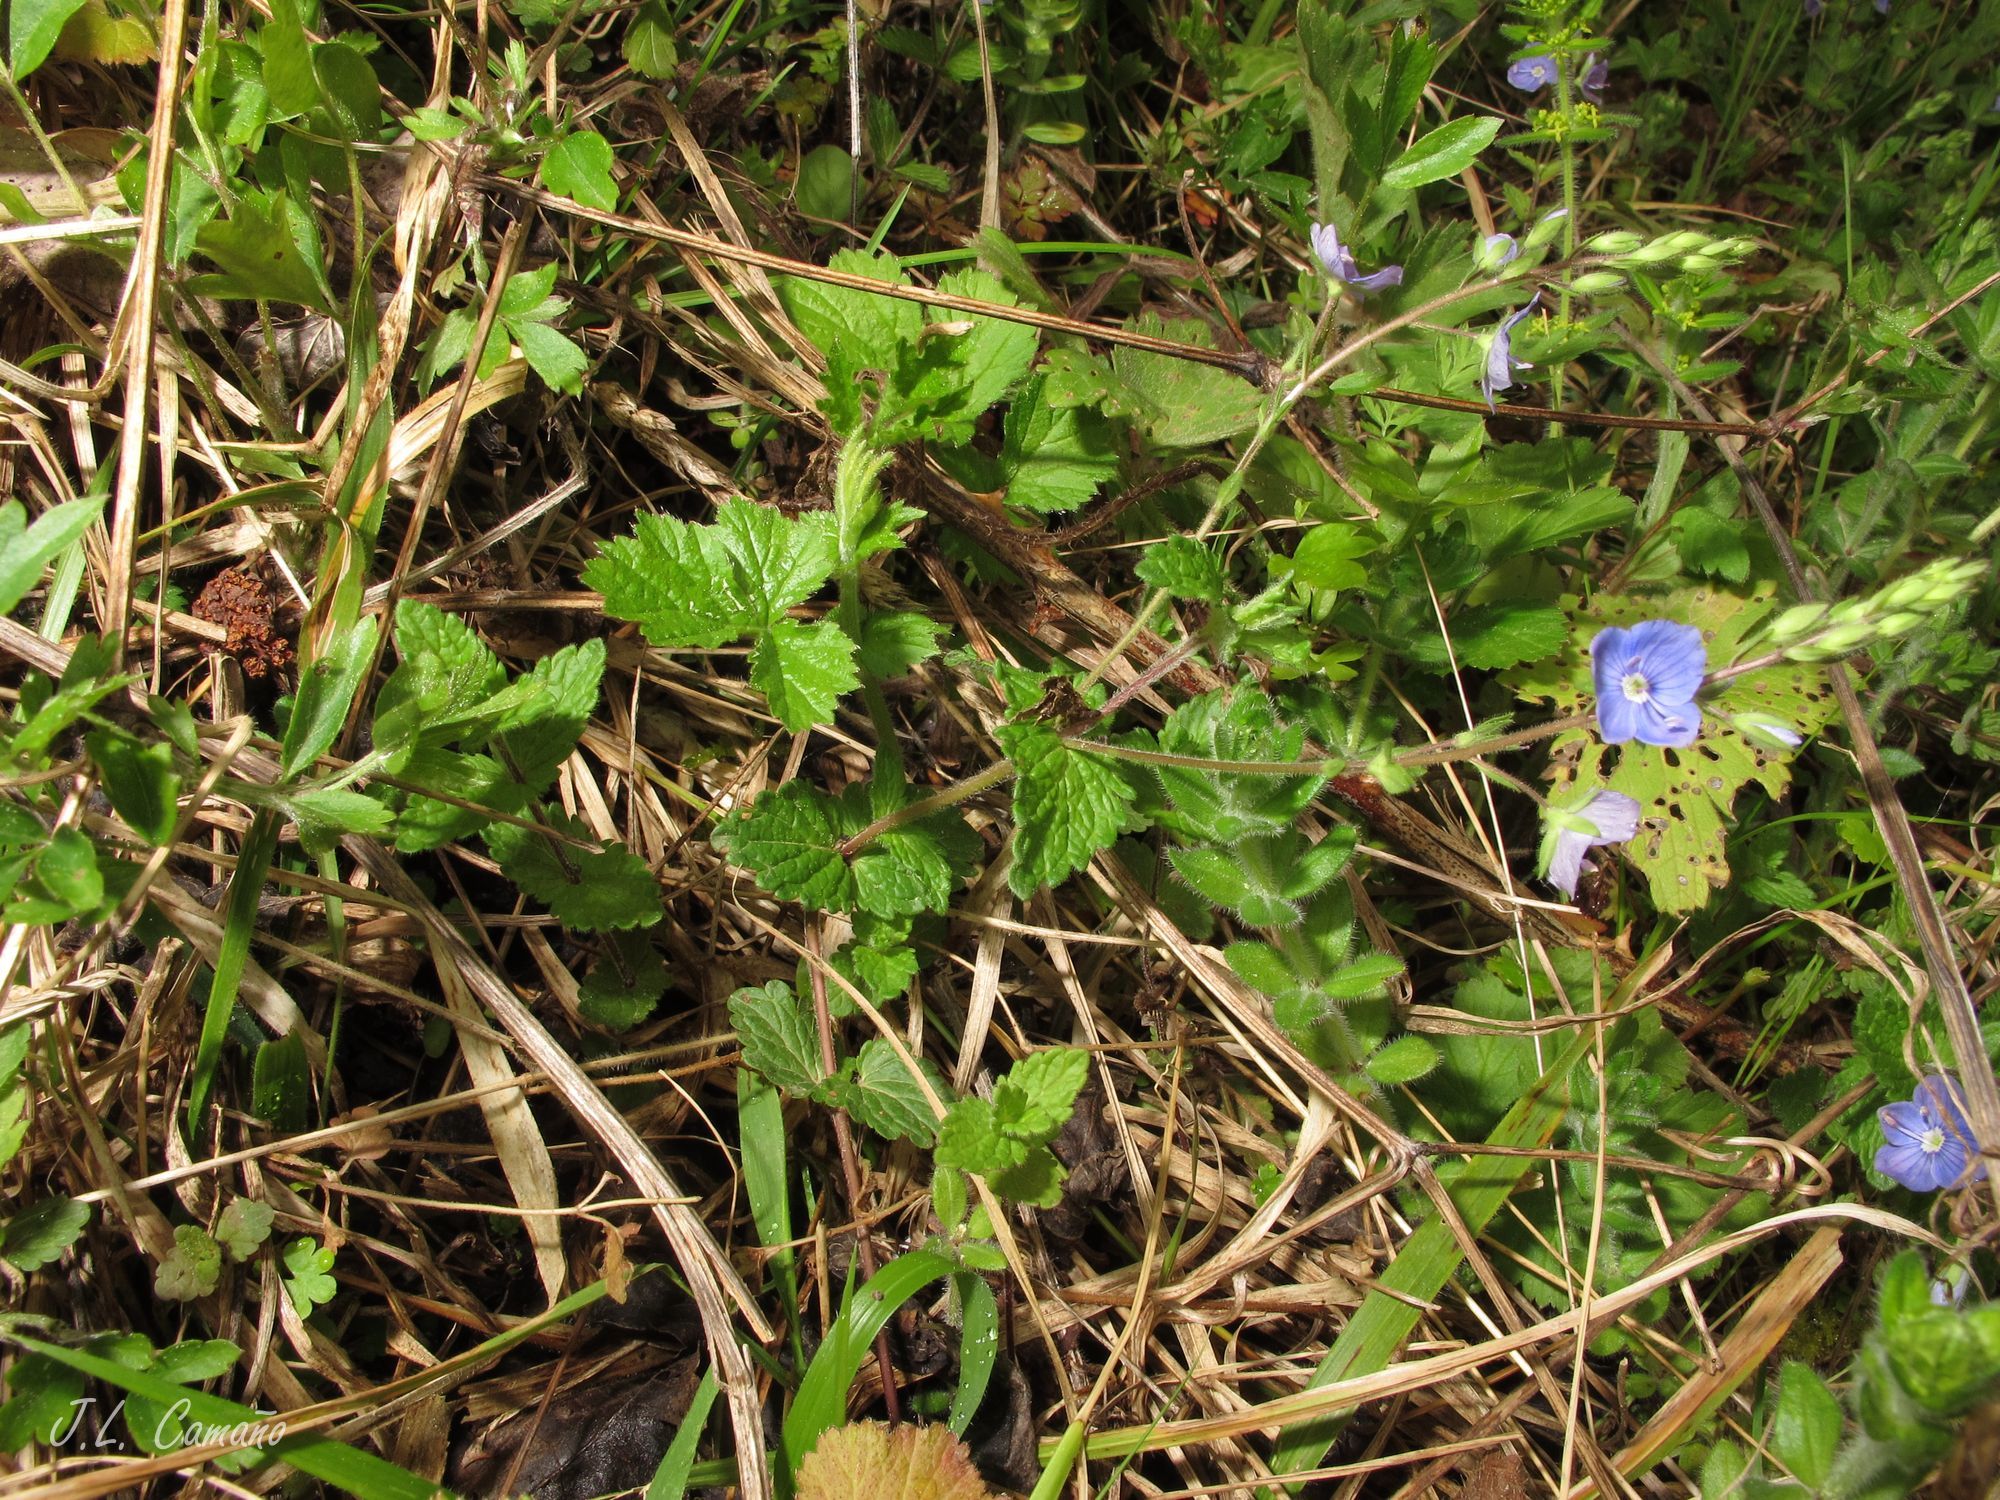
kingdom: Plantae
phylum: Tracheophyta
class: Magnoliopsida
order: Lamiales
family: Plantaginaceae
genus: Veronica
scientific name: Veronica chamaedrys
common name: Germander speedwell
